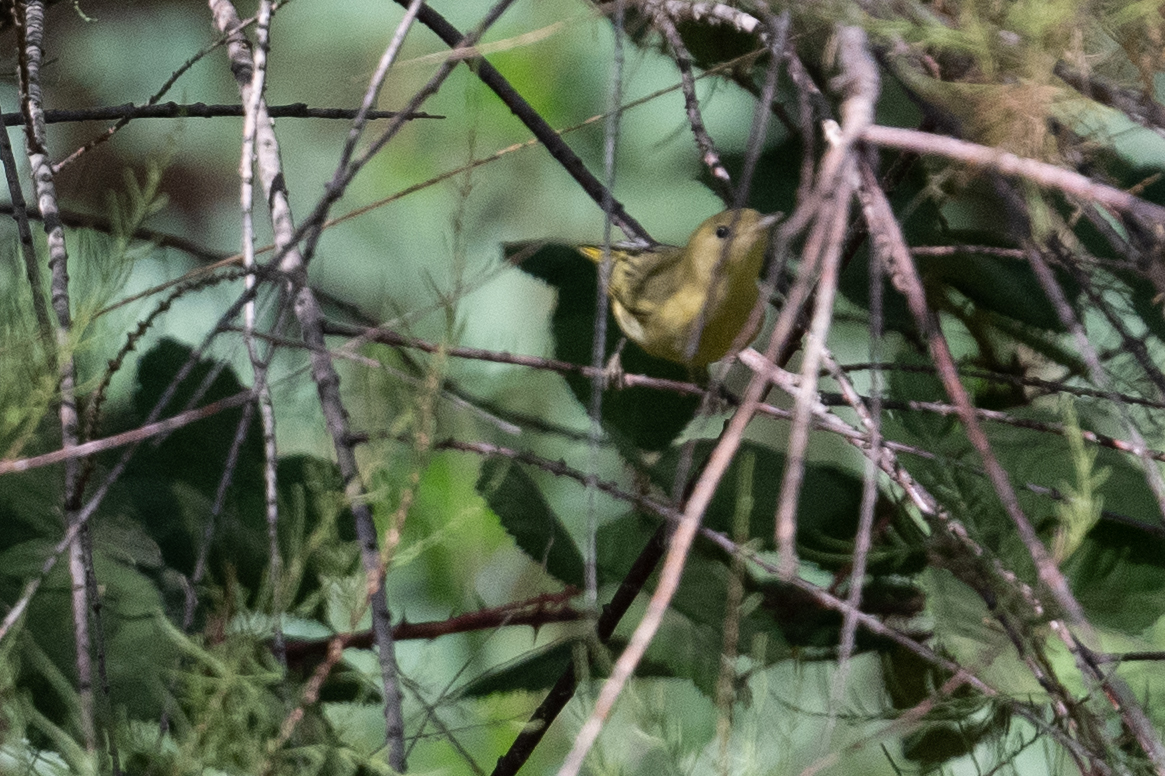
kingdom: Animalia
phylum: Chordata
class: Aves
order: Passeriformes
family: Parulidae
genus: Setophaga
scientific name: Setophaga petechia
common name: Yellow warbler
